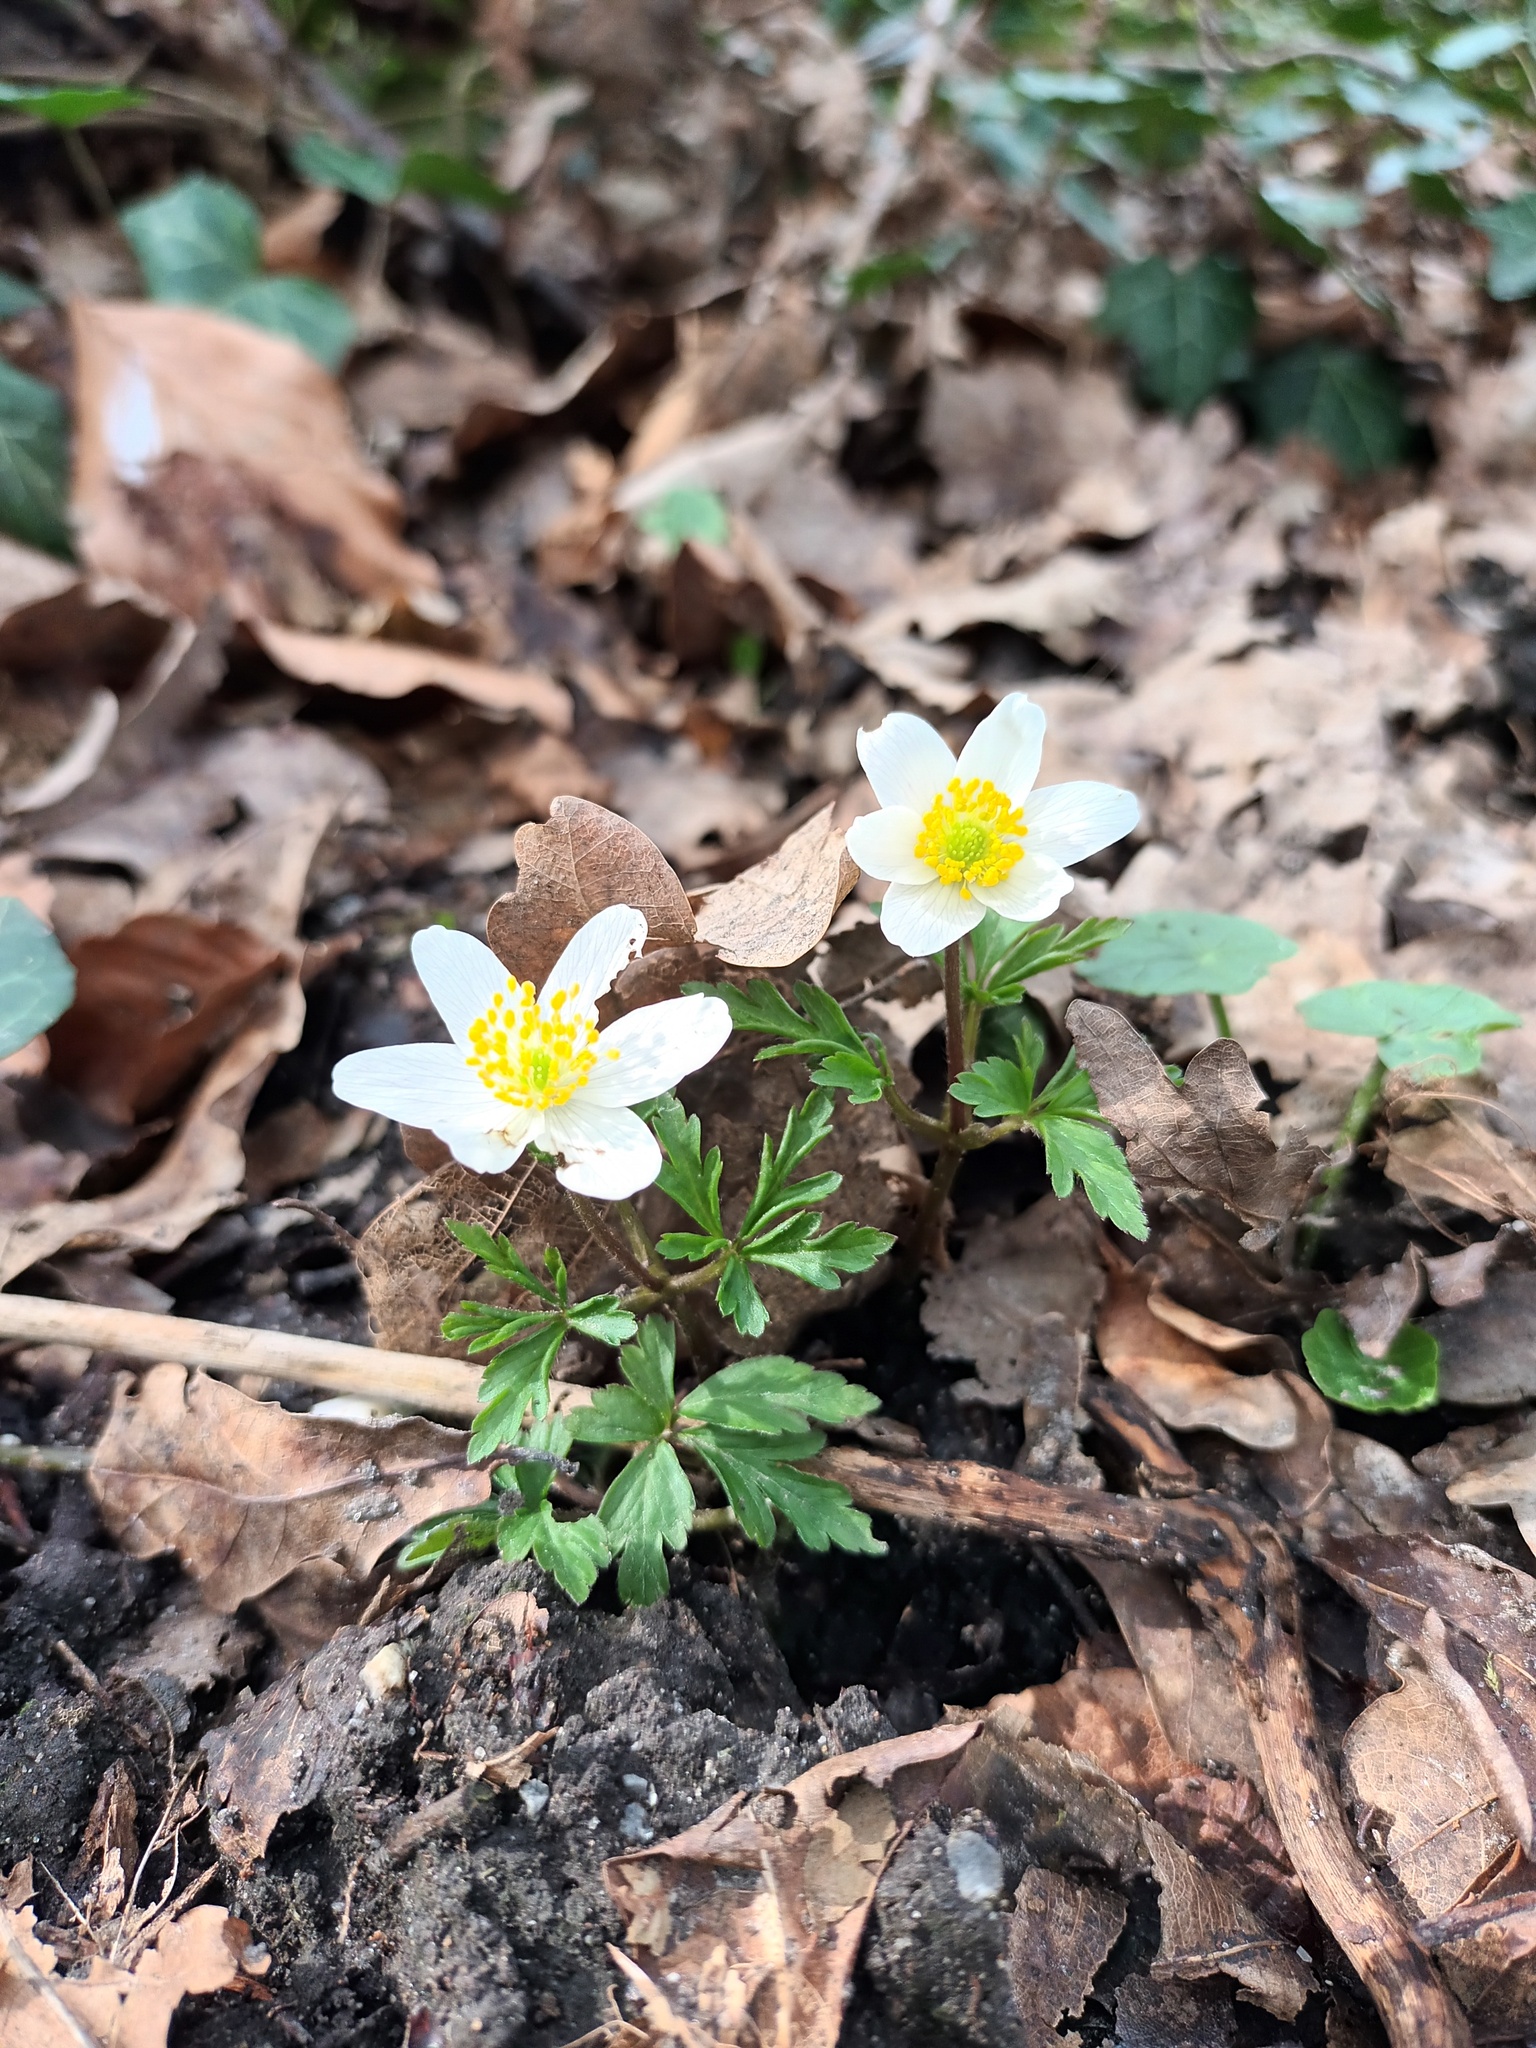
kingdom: Plantae
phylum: Tracheophyta
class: Magnoliopsida
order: Ranunculales
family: Ranunculaceae
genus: Anemone
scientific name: Anemone nemorosa
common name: Wood anemone
